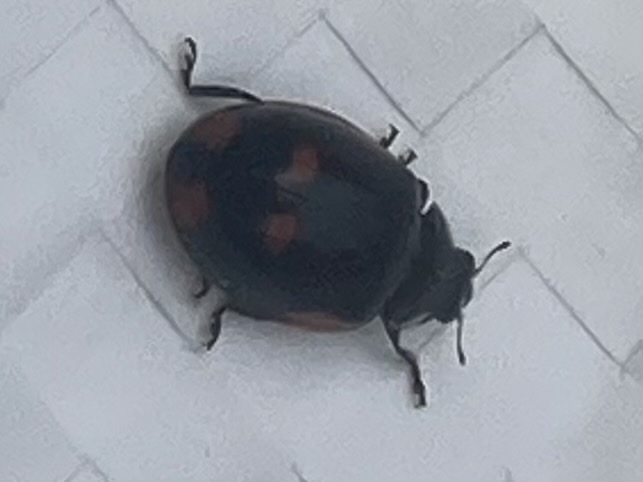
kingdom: Animalia
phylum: Arthropoda
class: Insecta
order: Coleoptera
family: Coccinellidae
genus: Adalia
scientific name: Adalia bipunctata
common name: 2-spot ladybird
